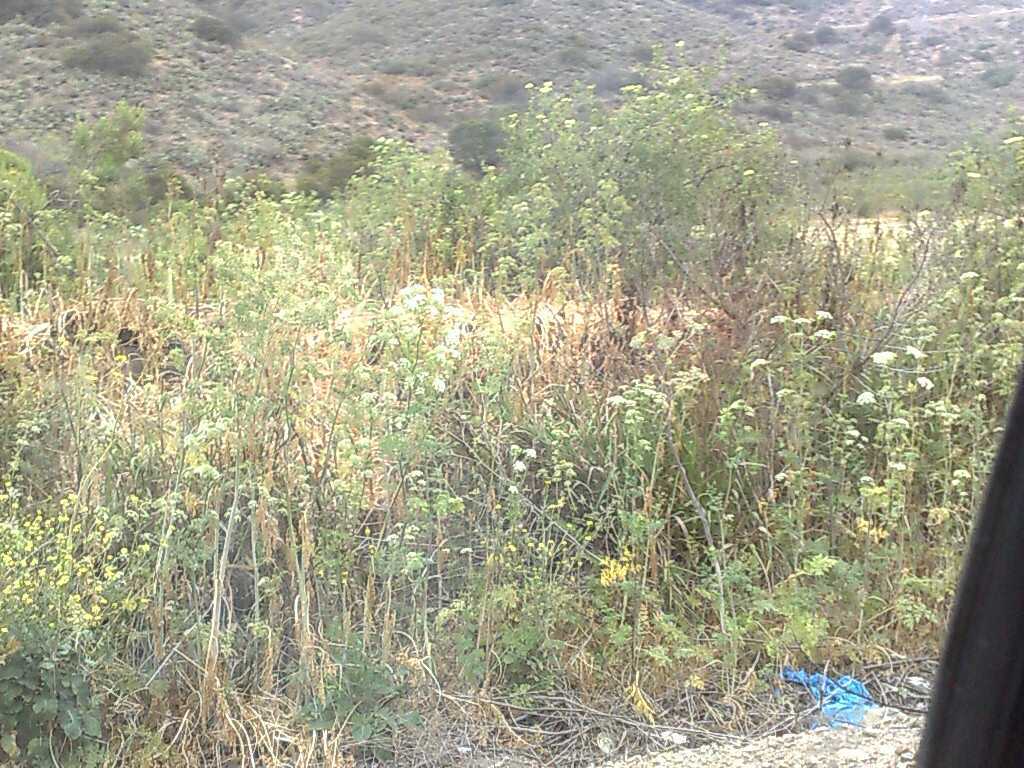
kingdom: Plantae
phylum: Tracheophyta
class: Magnoliopsida
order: Dipsacales
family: Viburnaceae
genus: Sambucus
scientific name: Sambucus cerulea
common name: Blue elder
